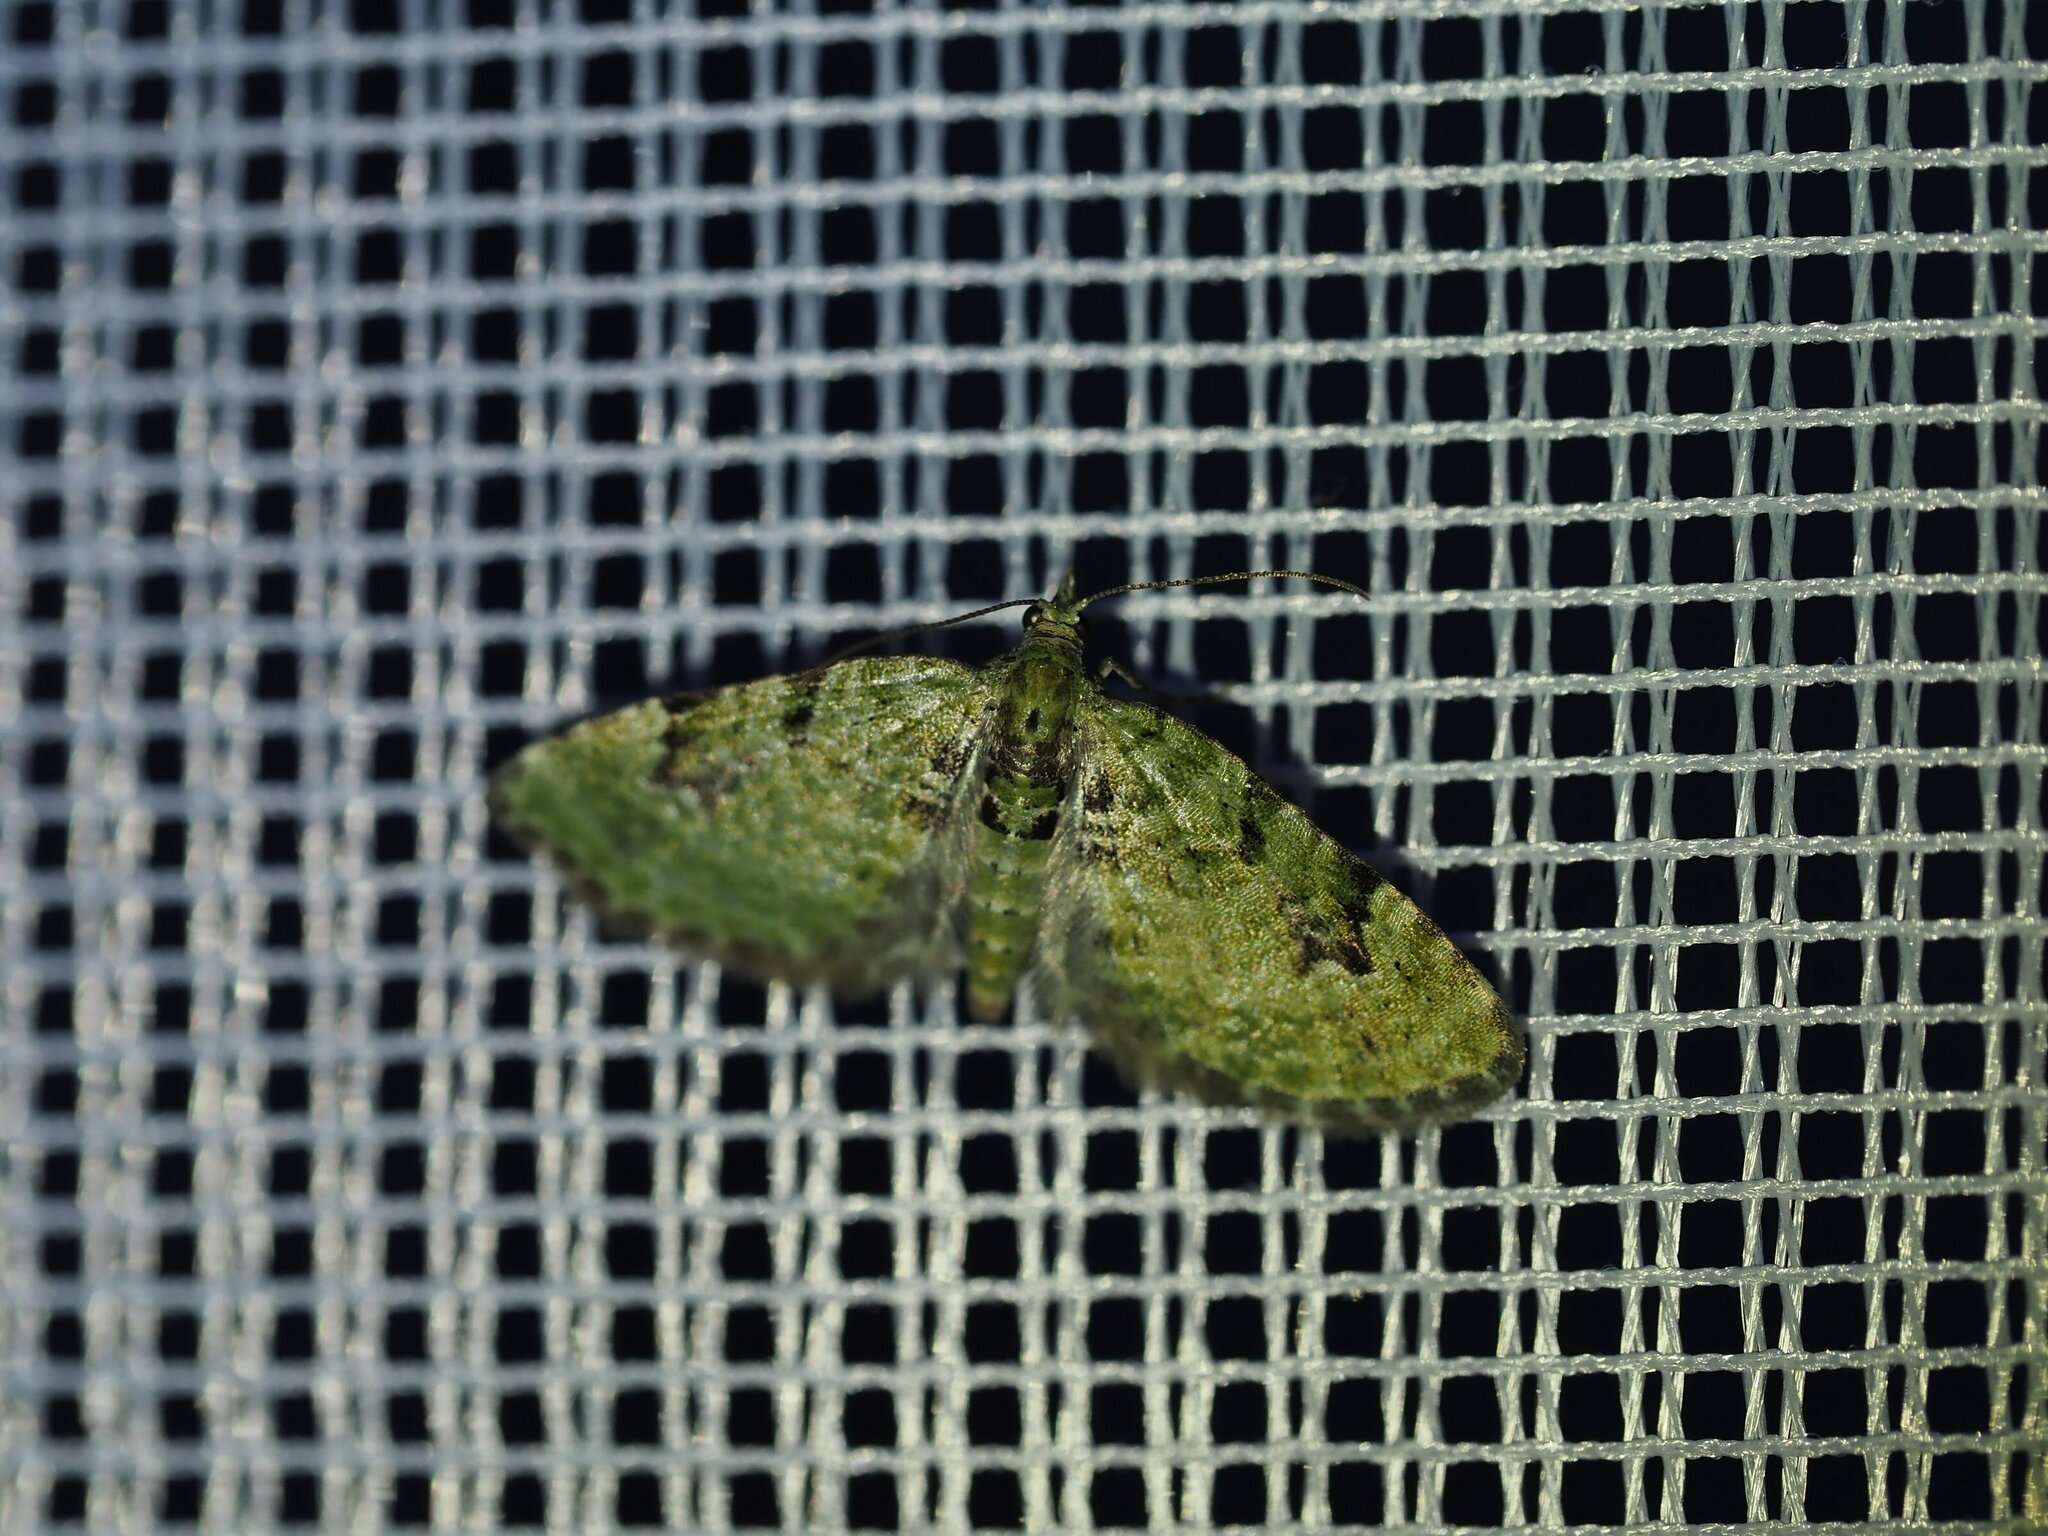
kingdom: Animalia
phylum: Arthropoda
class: Insecta
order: Lepidoptera
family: Geometridae
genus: Chloroclystis
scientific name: Chloroclystis v-ata
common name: V-pug
